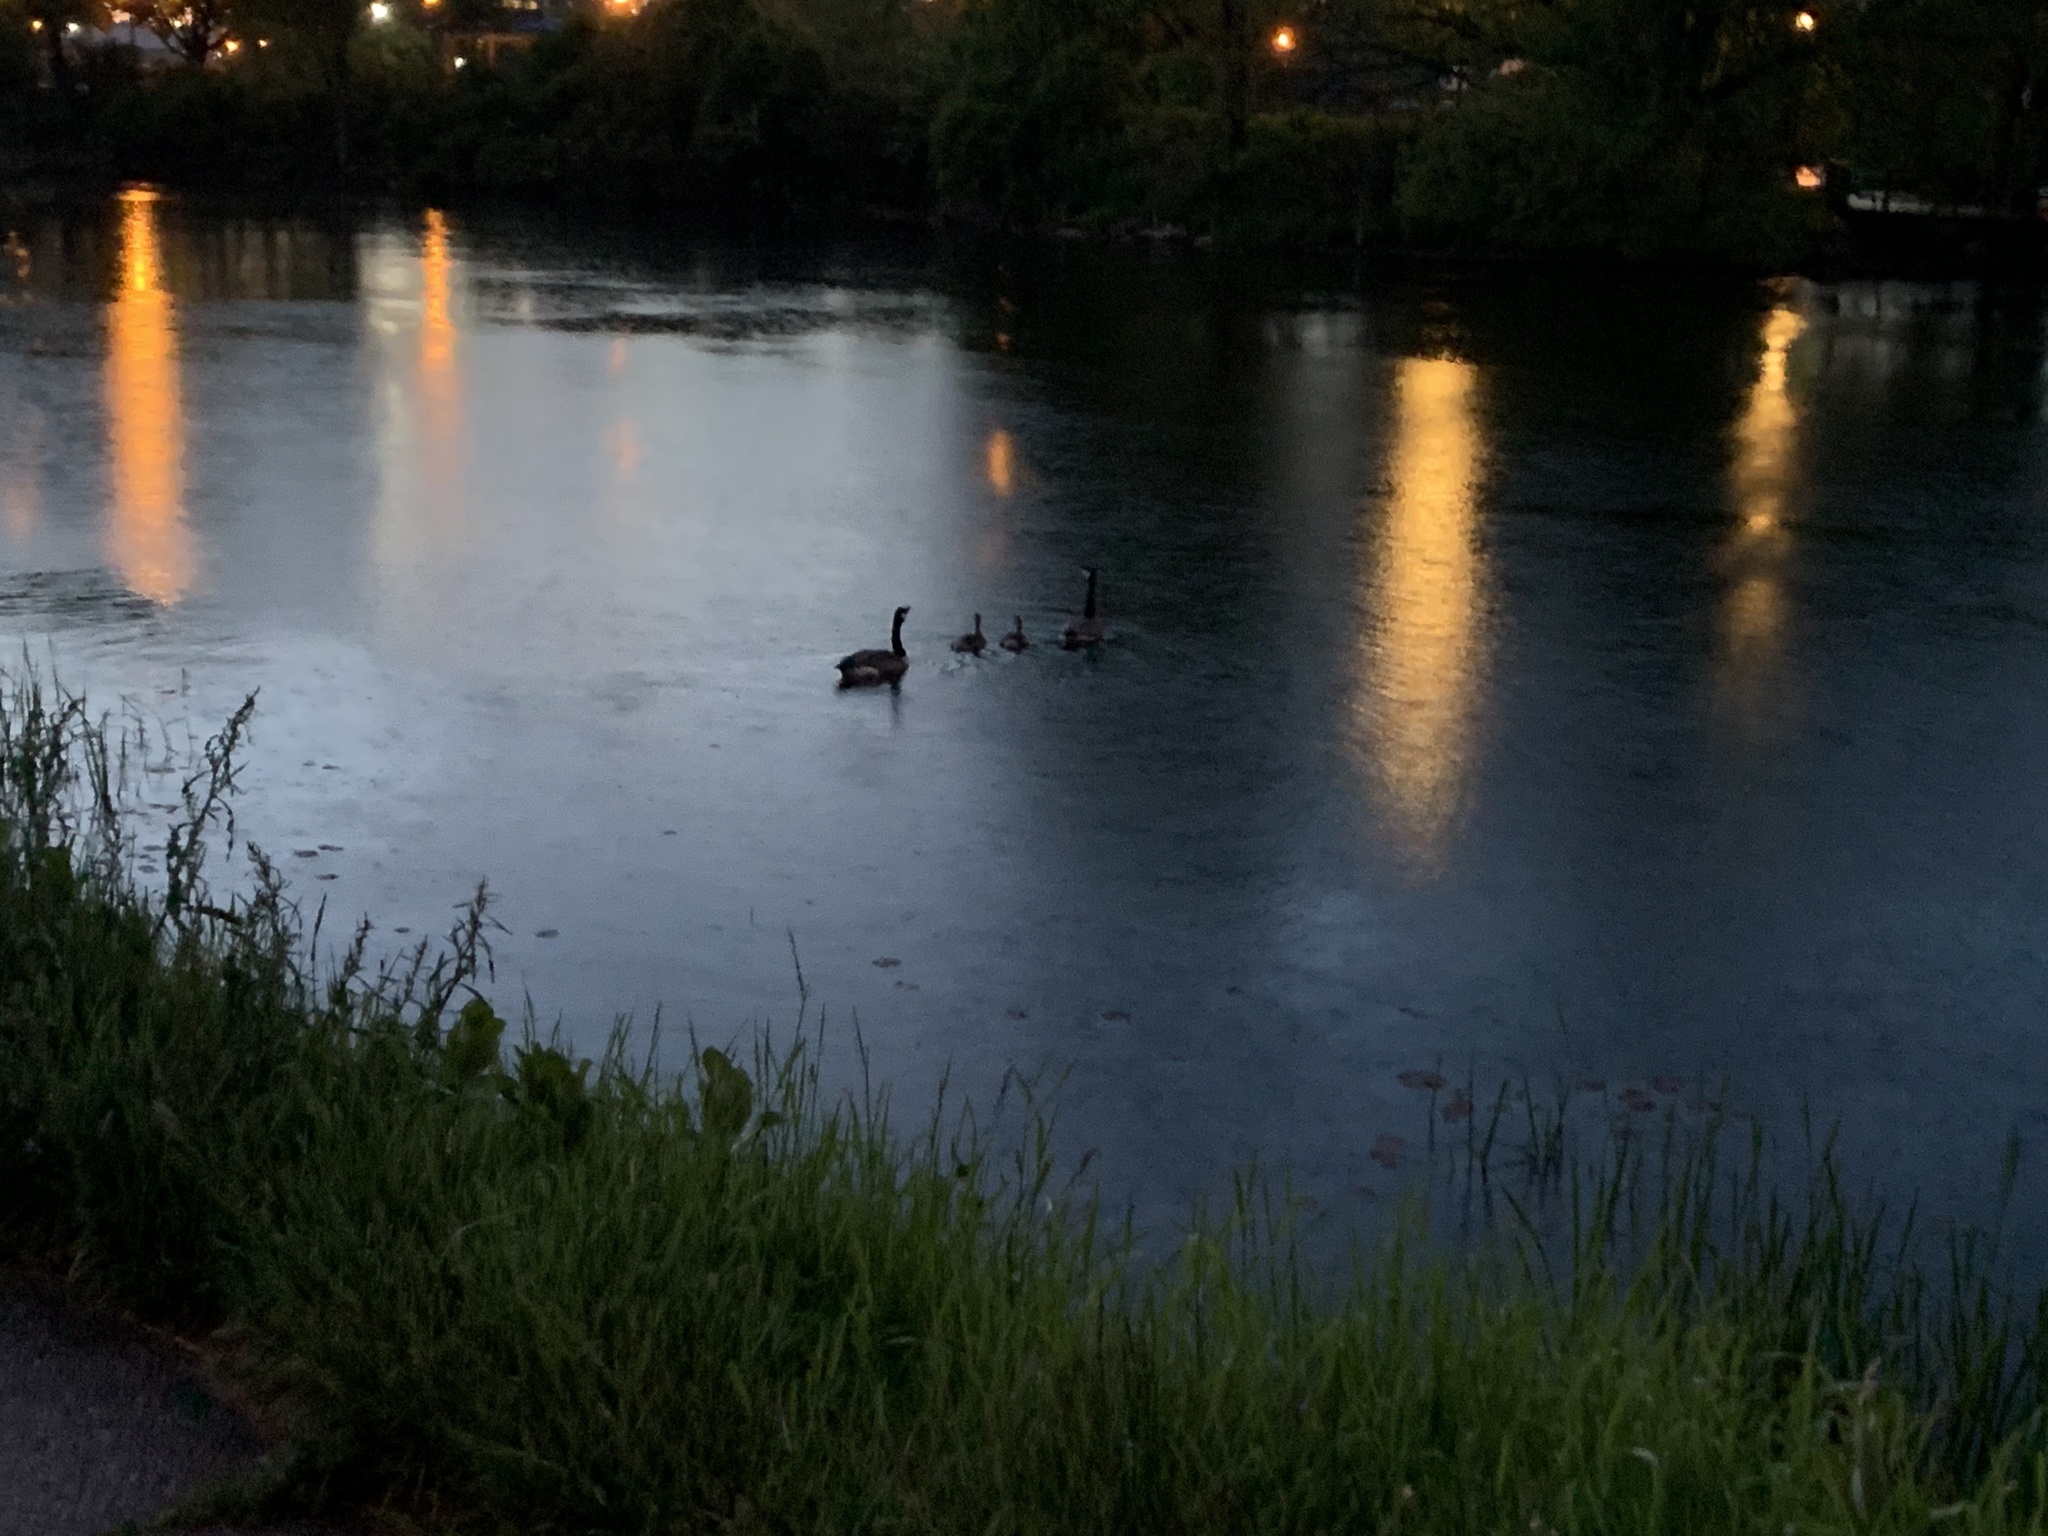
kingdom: Animalia
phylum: Chordata
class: Aves
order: Anseriformes
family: Anatidae
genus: Branta
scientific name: Branta canadensis
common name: Canada goose
